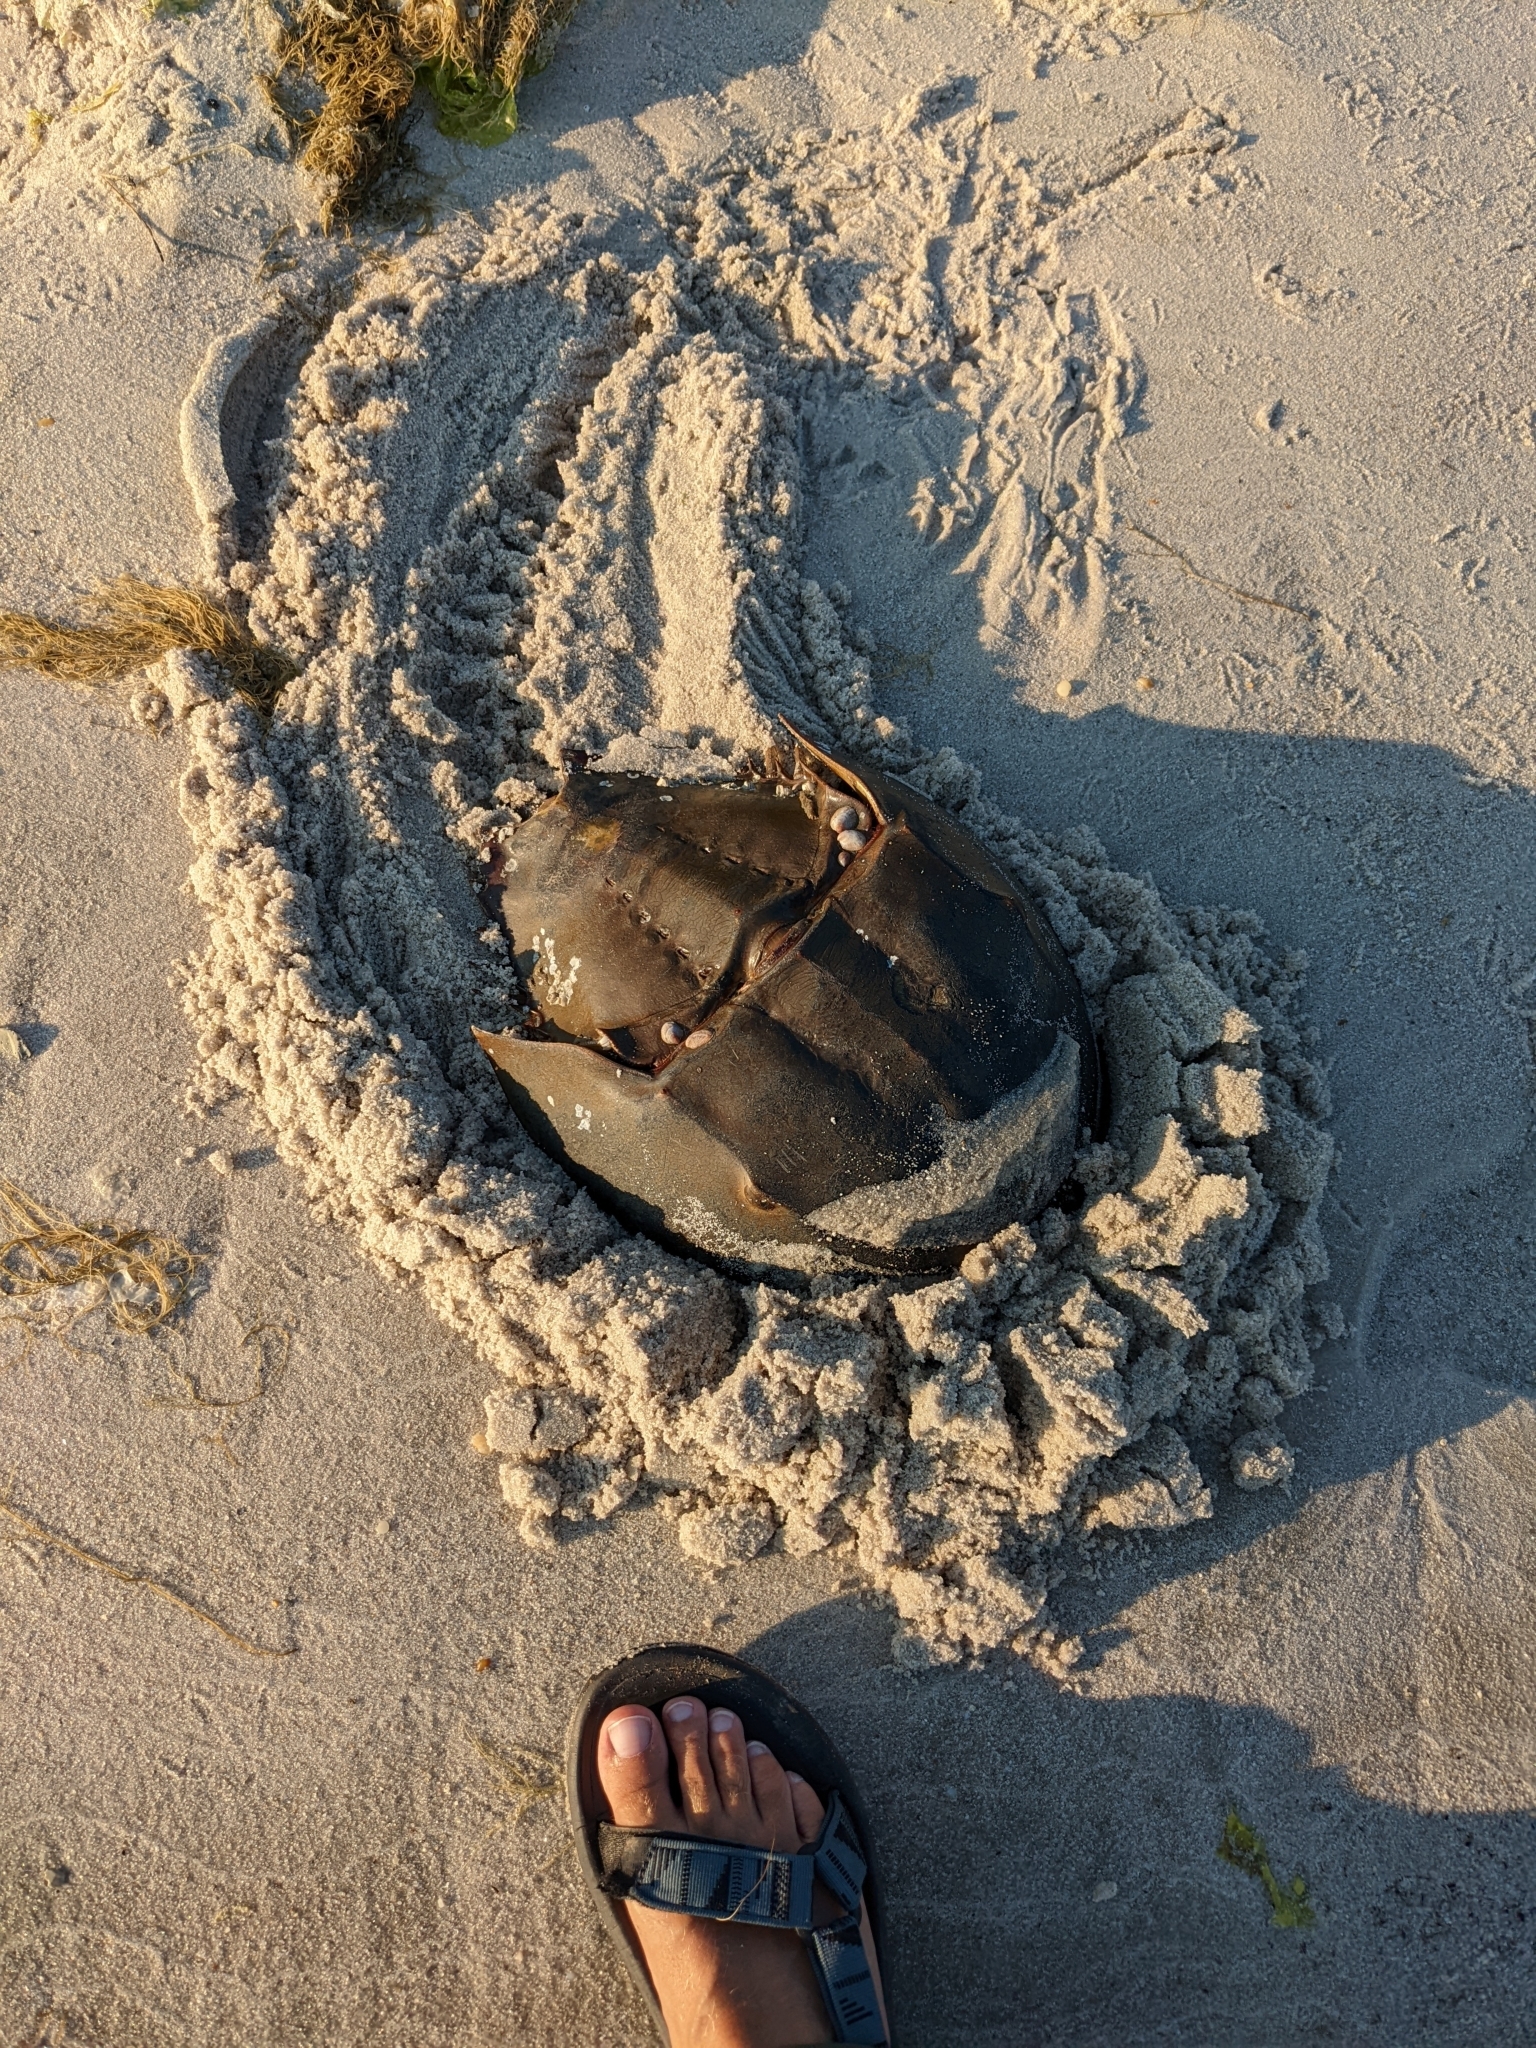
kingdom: Animalia
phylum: Arthropoda
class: Merostomata
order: Xiphosurida
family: Limulidae
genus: Limulus
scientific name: Limulus polyphemus
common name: Horseshoe crab
